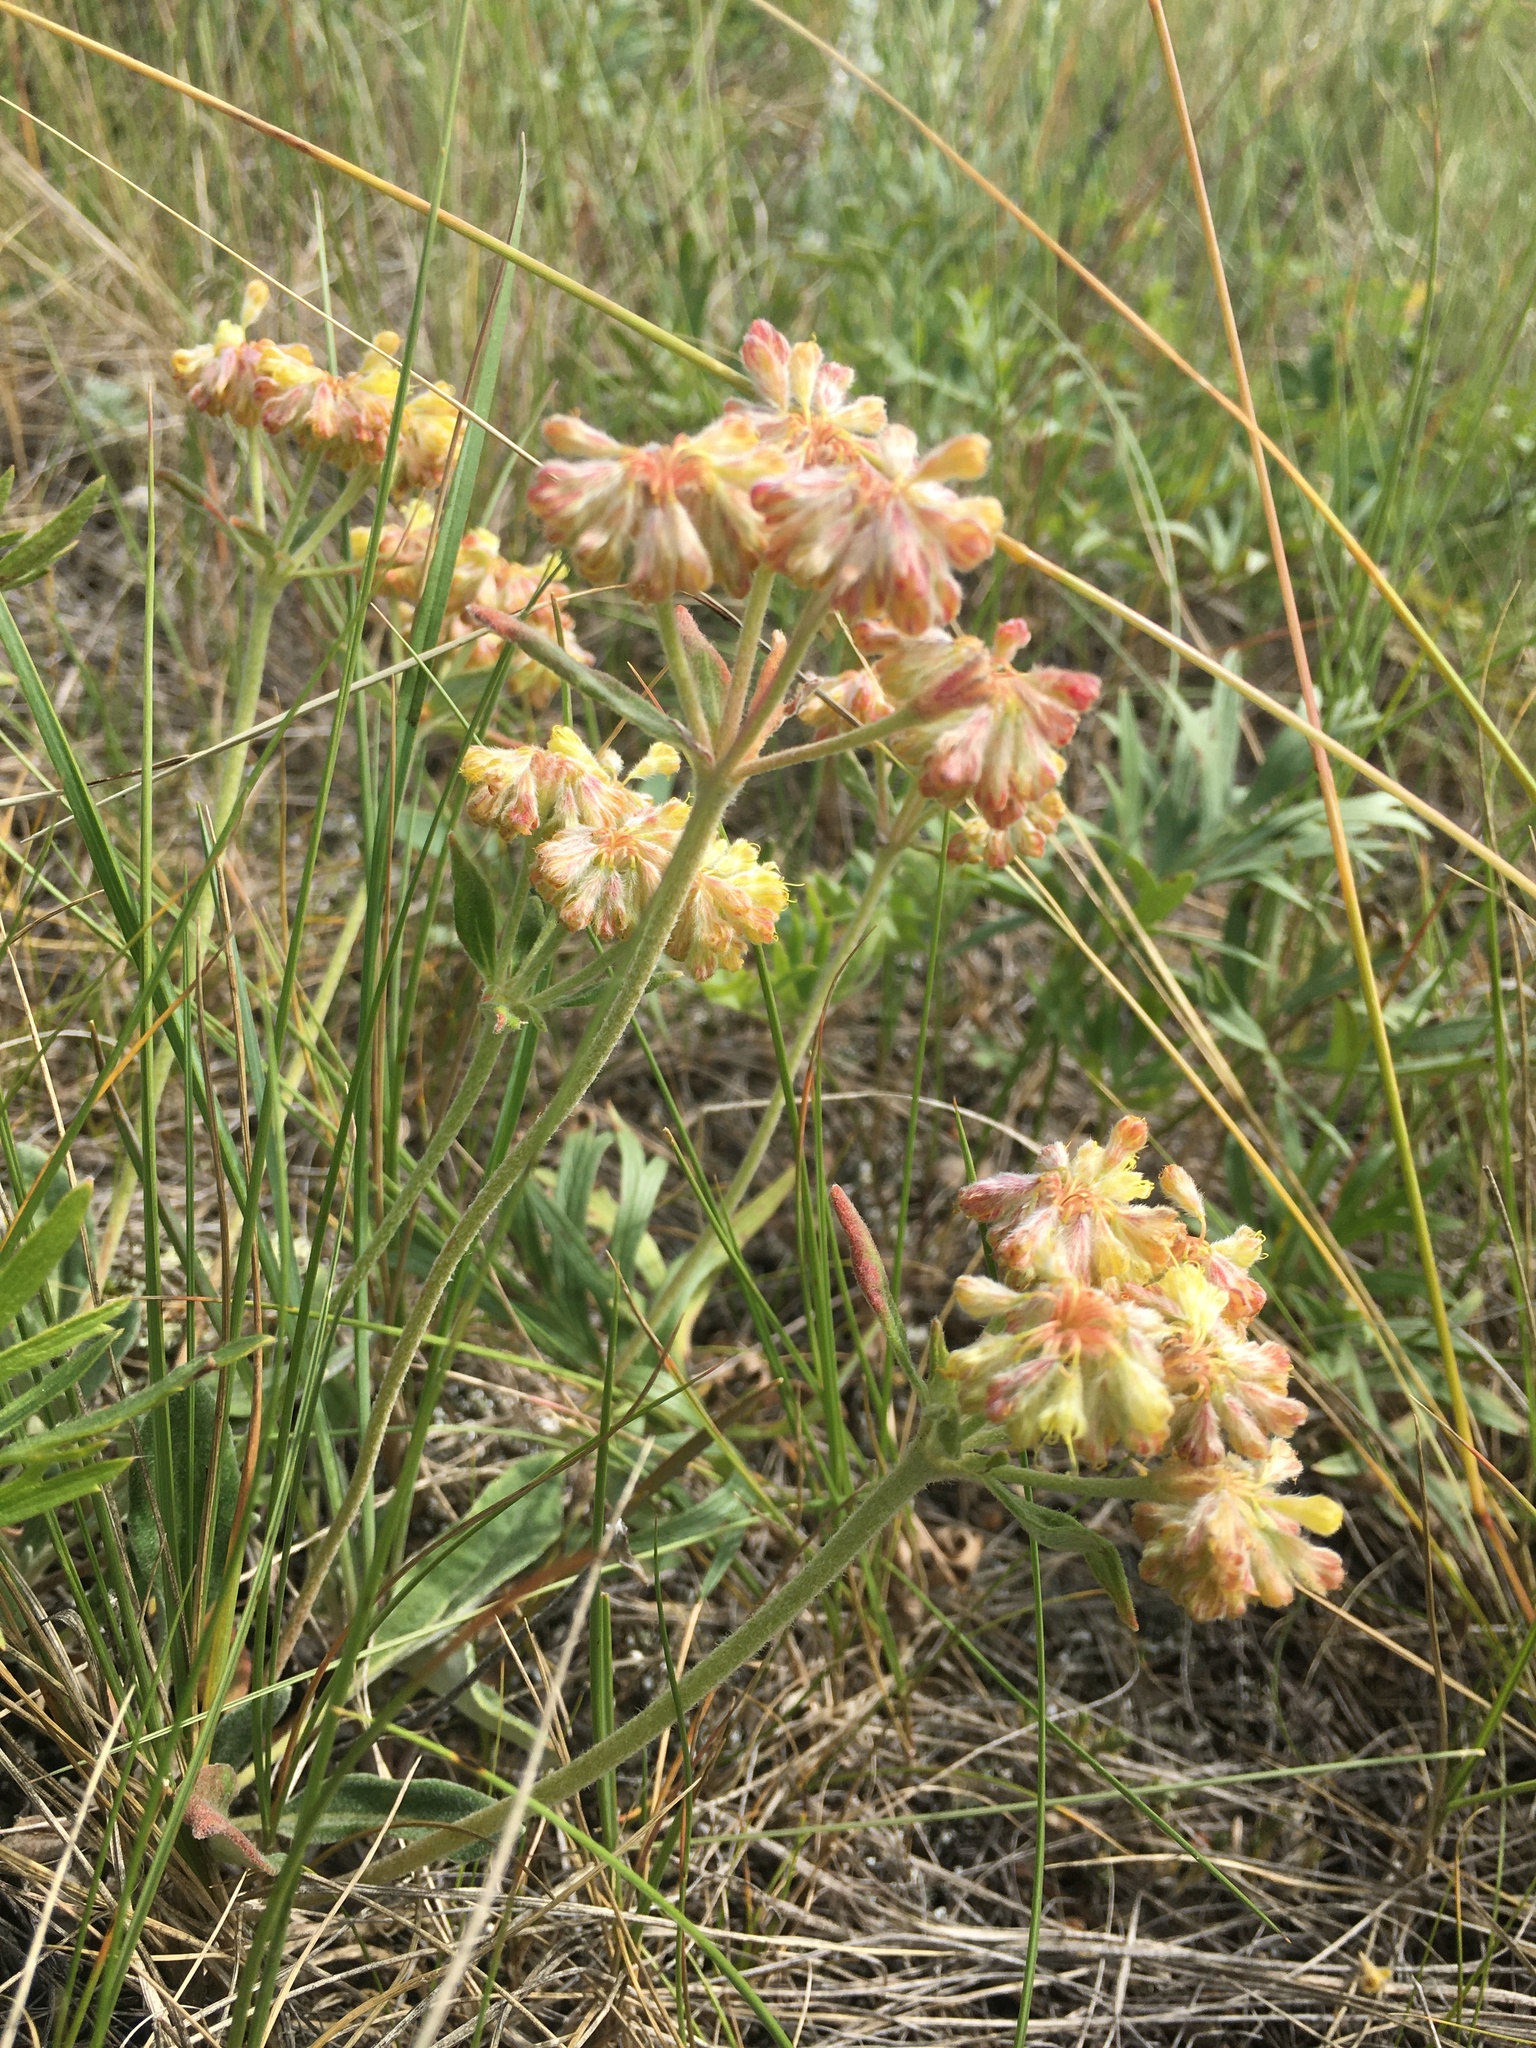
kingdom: Plantae
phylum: Tracheophyta
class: Magnoliopsida
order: Caryophyllales
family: Polygonaceae
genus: Eriogonum
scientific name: Eriogonum flavum
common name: Alpine golden wild buckwheat
